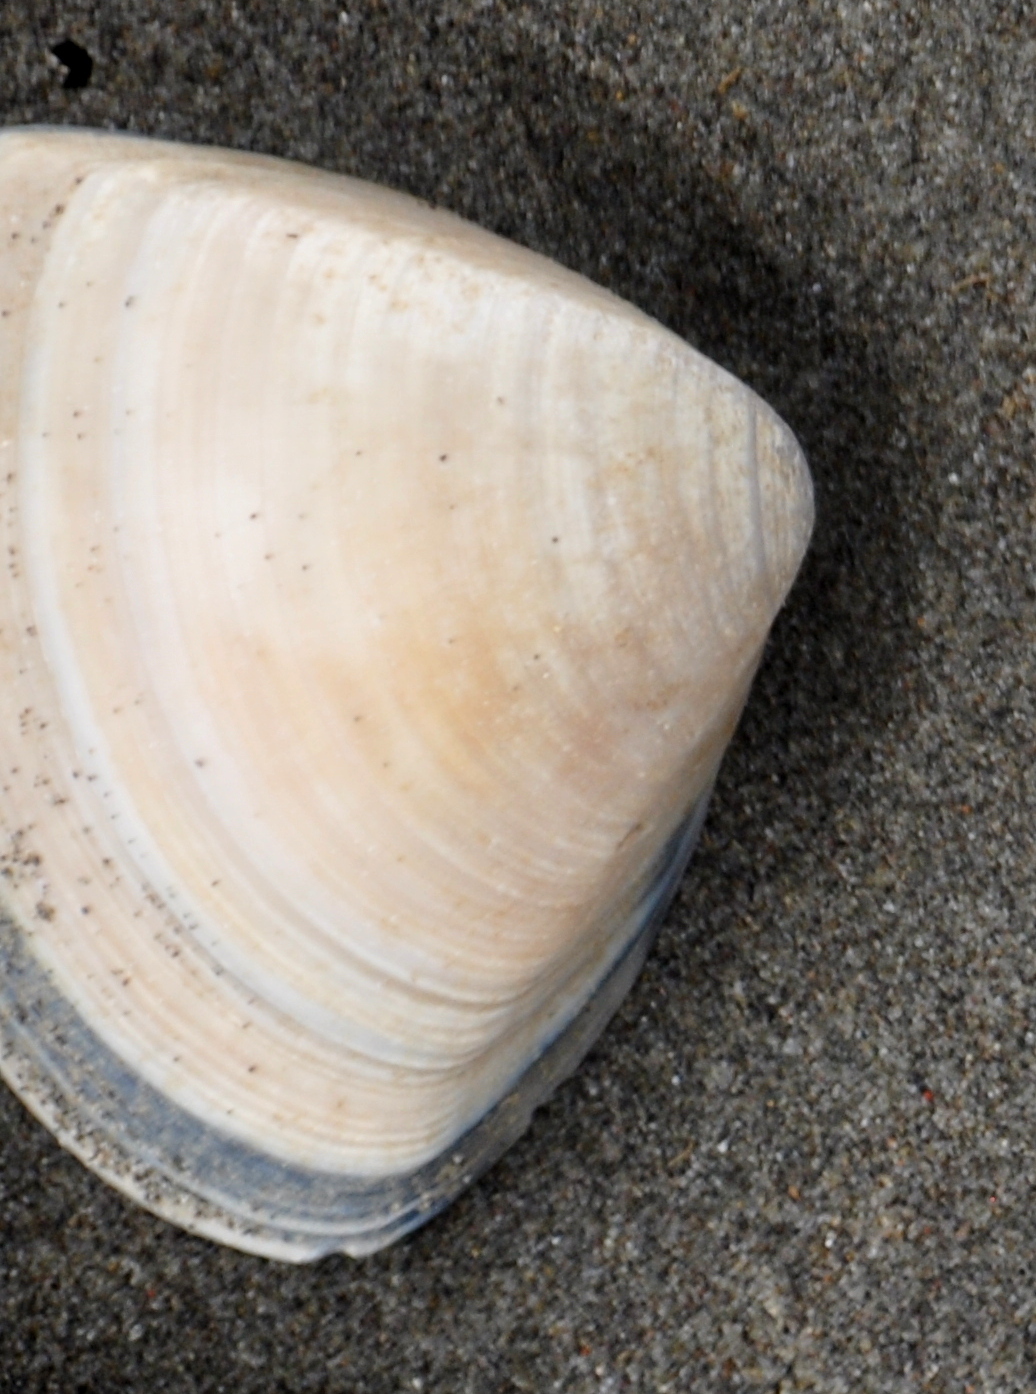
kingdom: Animalia
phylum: Mollusca
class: Bivalvia
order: Venerida
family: Mactridae
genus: Crassula
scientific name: Crassula aequilatera
